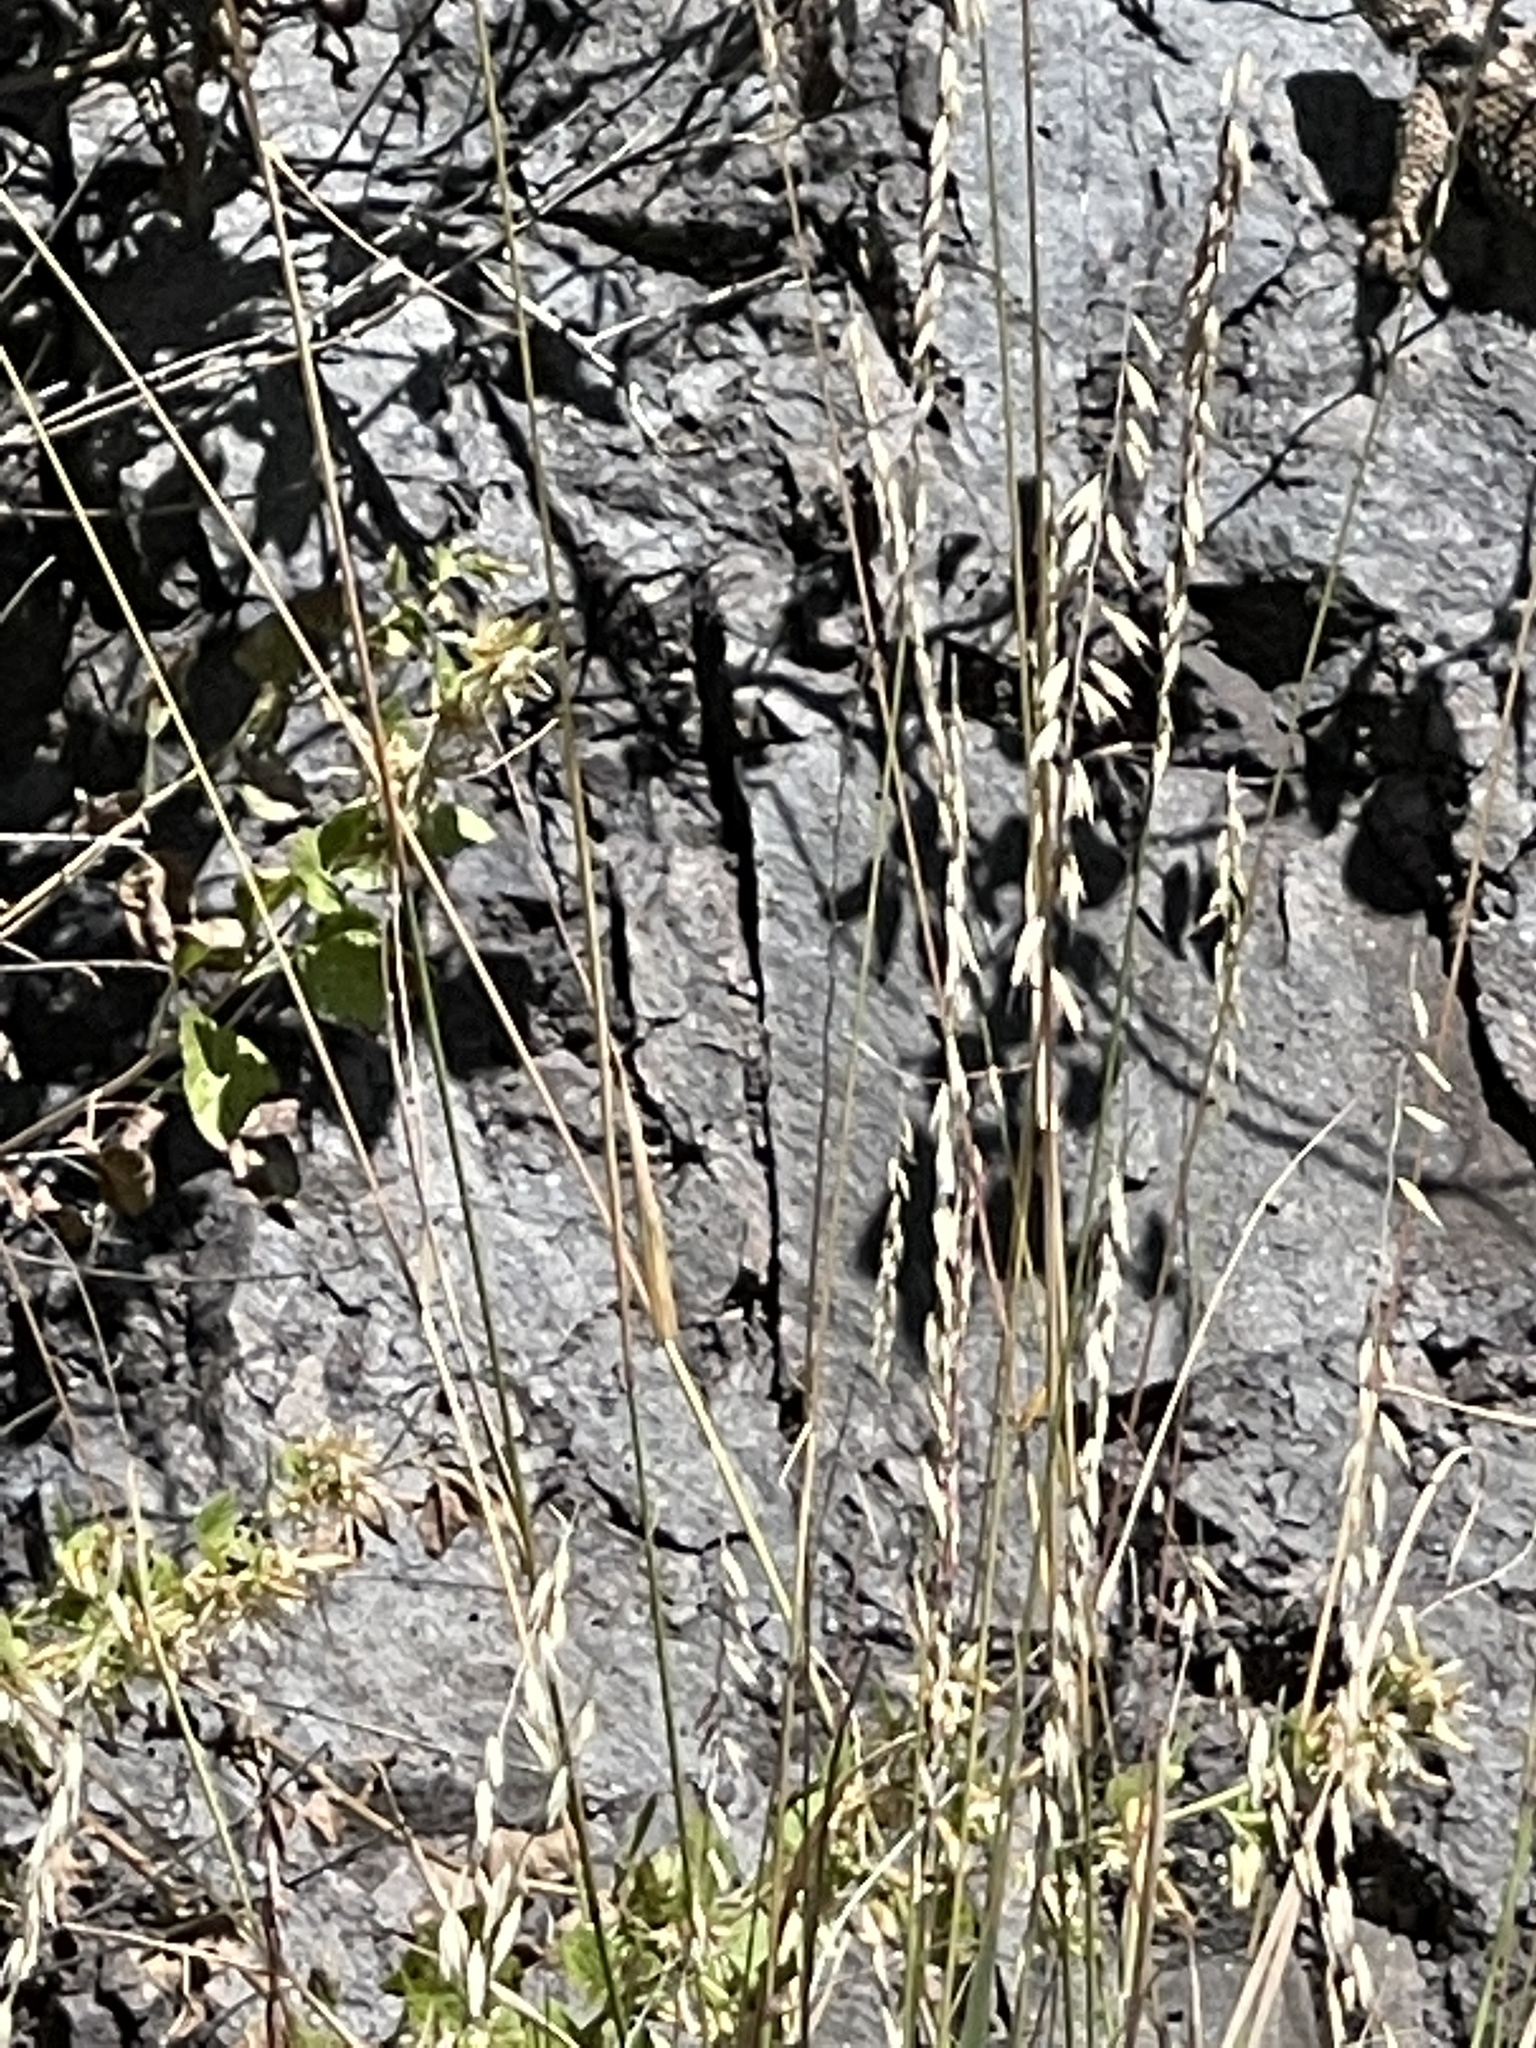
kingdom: Plantae
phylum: Tracheophyta
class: Liliopsida
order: Poales
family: Poaceae
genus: Bouteloua
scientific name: Bouteloua curtipendula
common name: Side-oats grama
